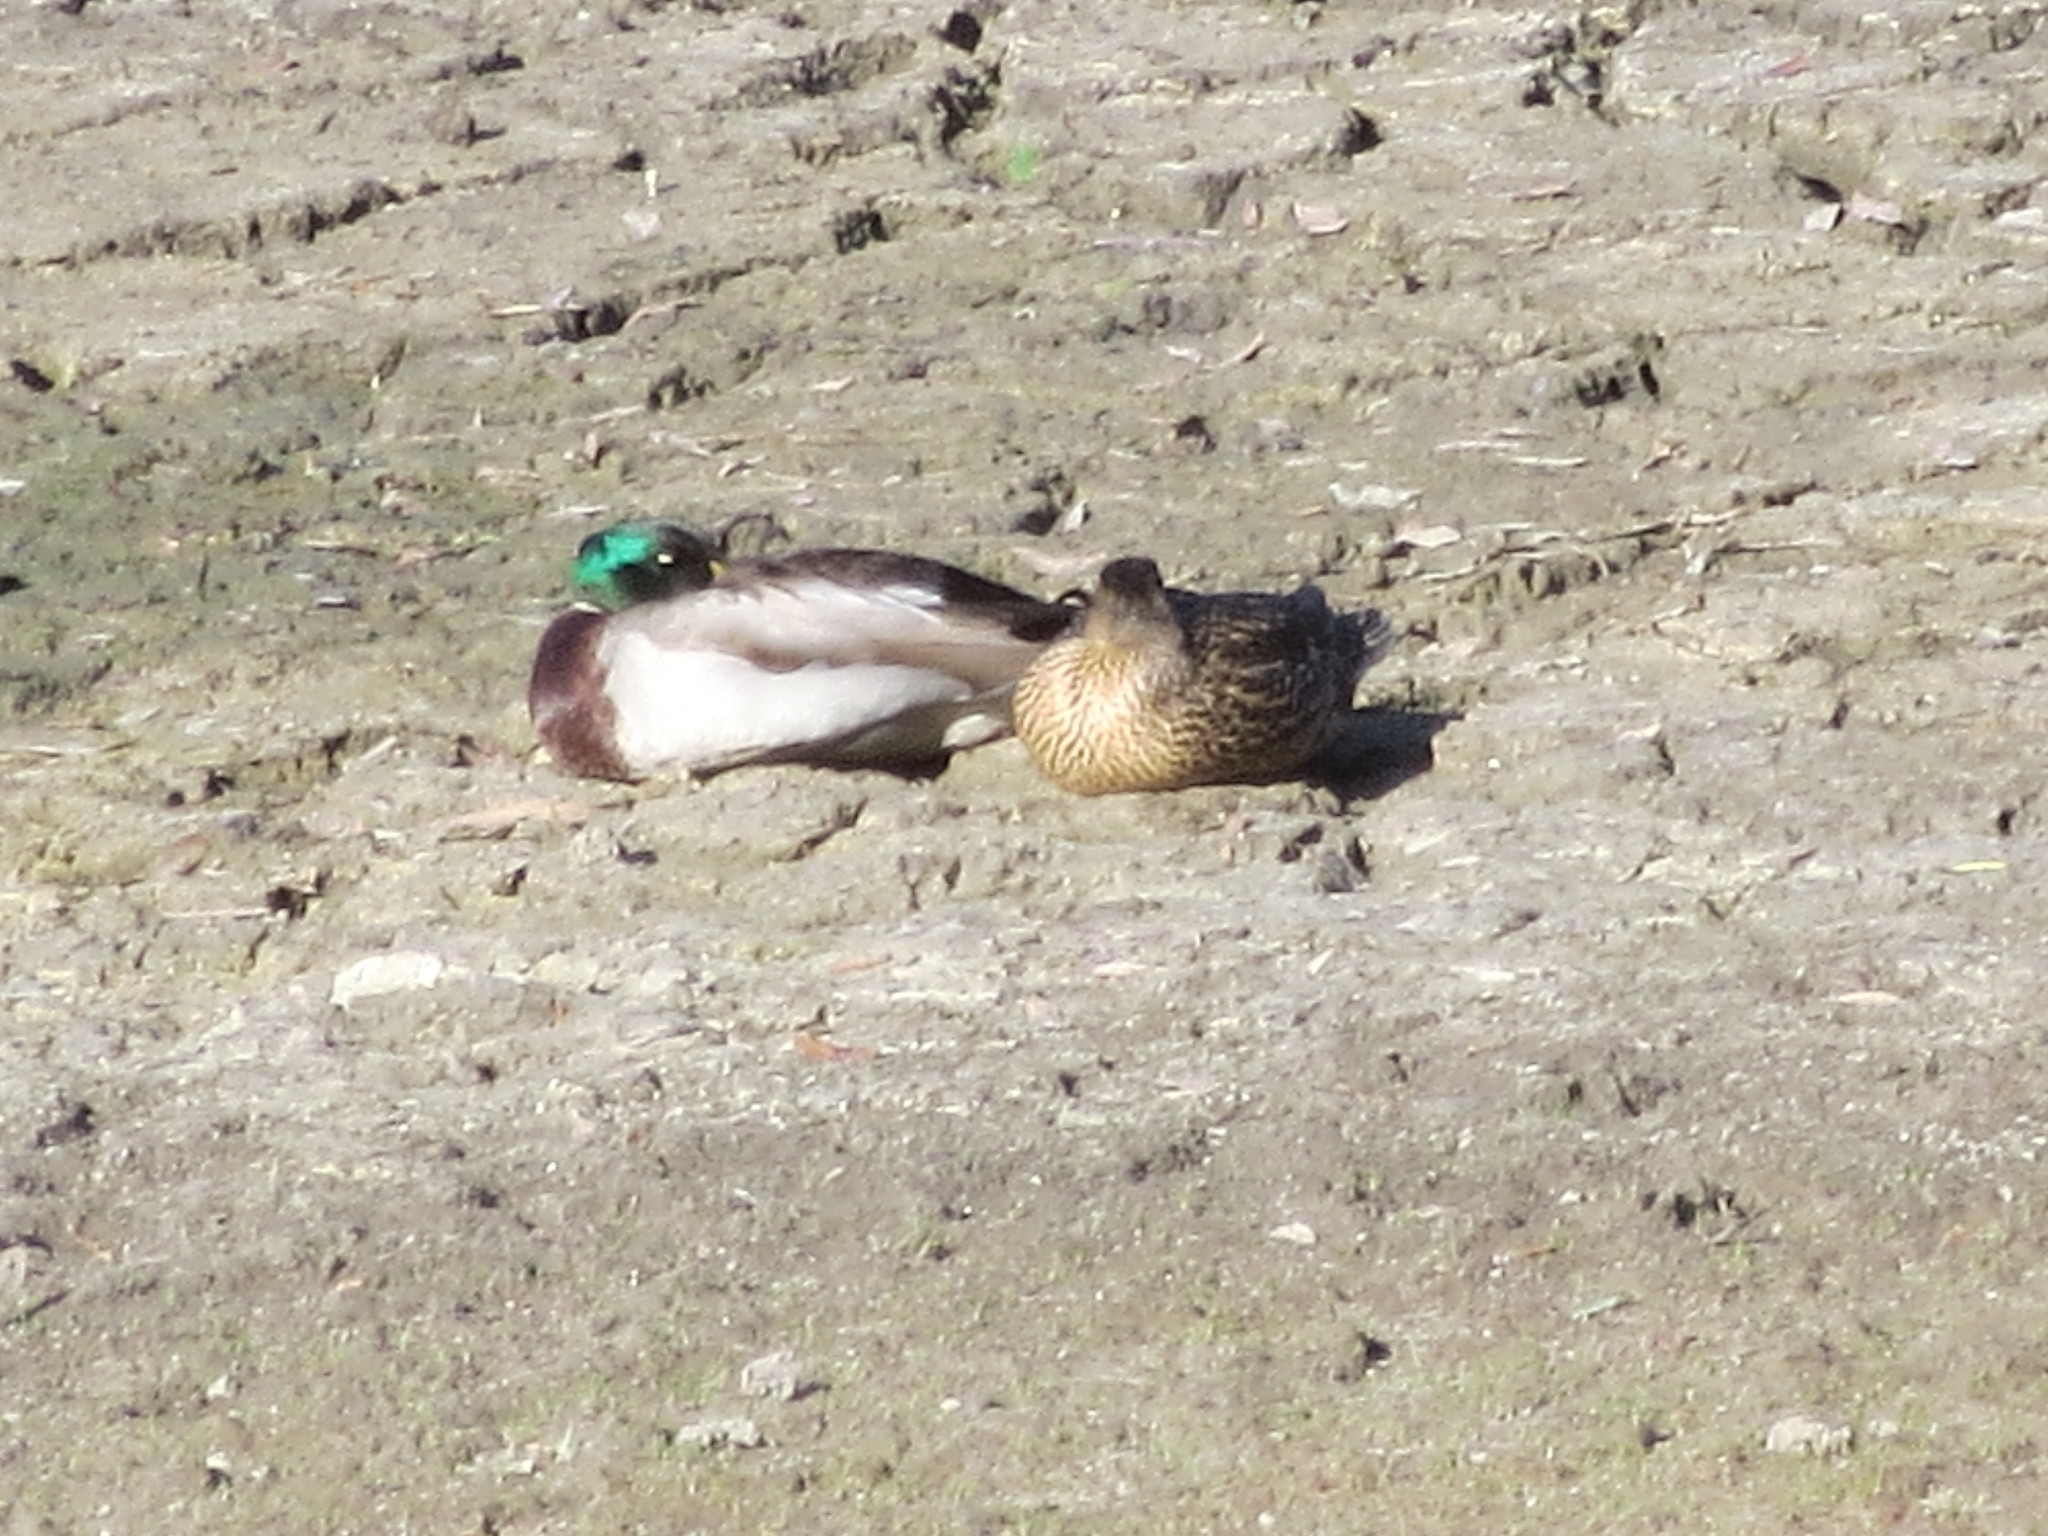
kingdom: Animalia
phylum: Chordata
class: Aves
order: Anseriformes
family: Anatidae
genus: Anas
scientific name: Anas platyrhynchos
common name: Mallard
